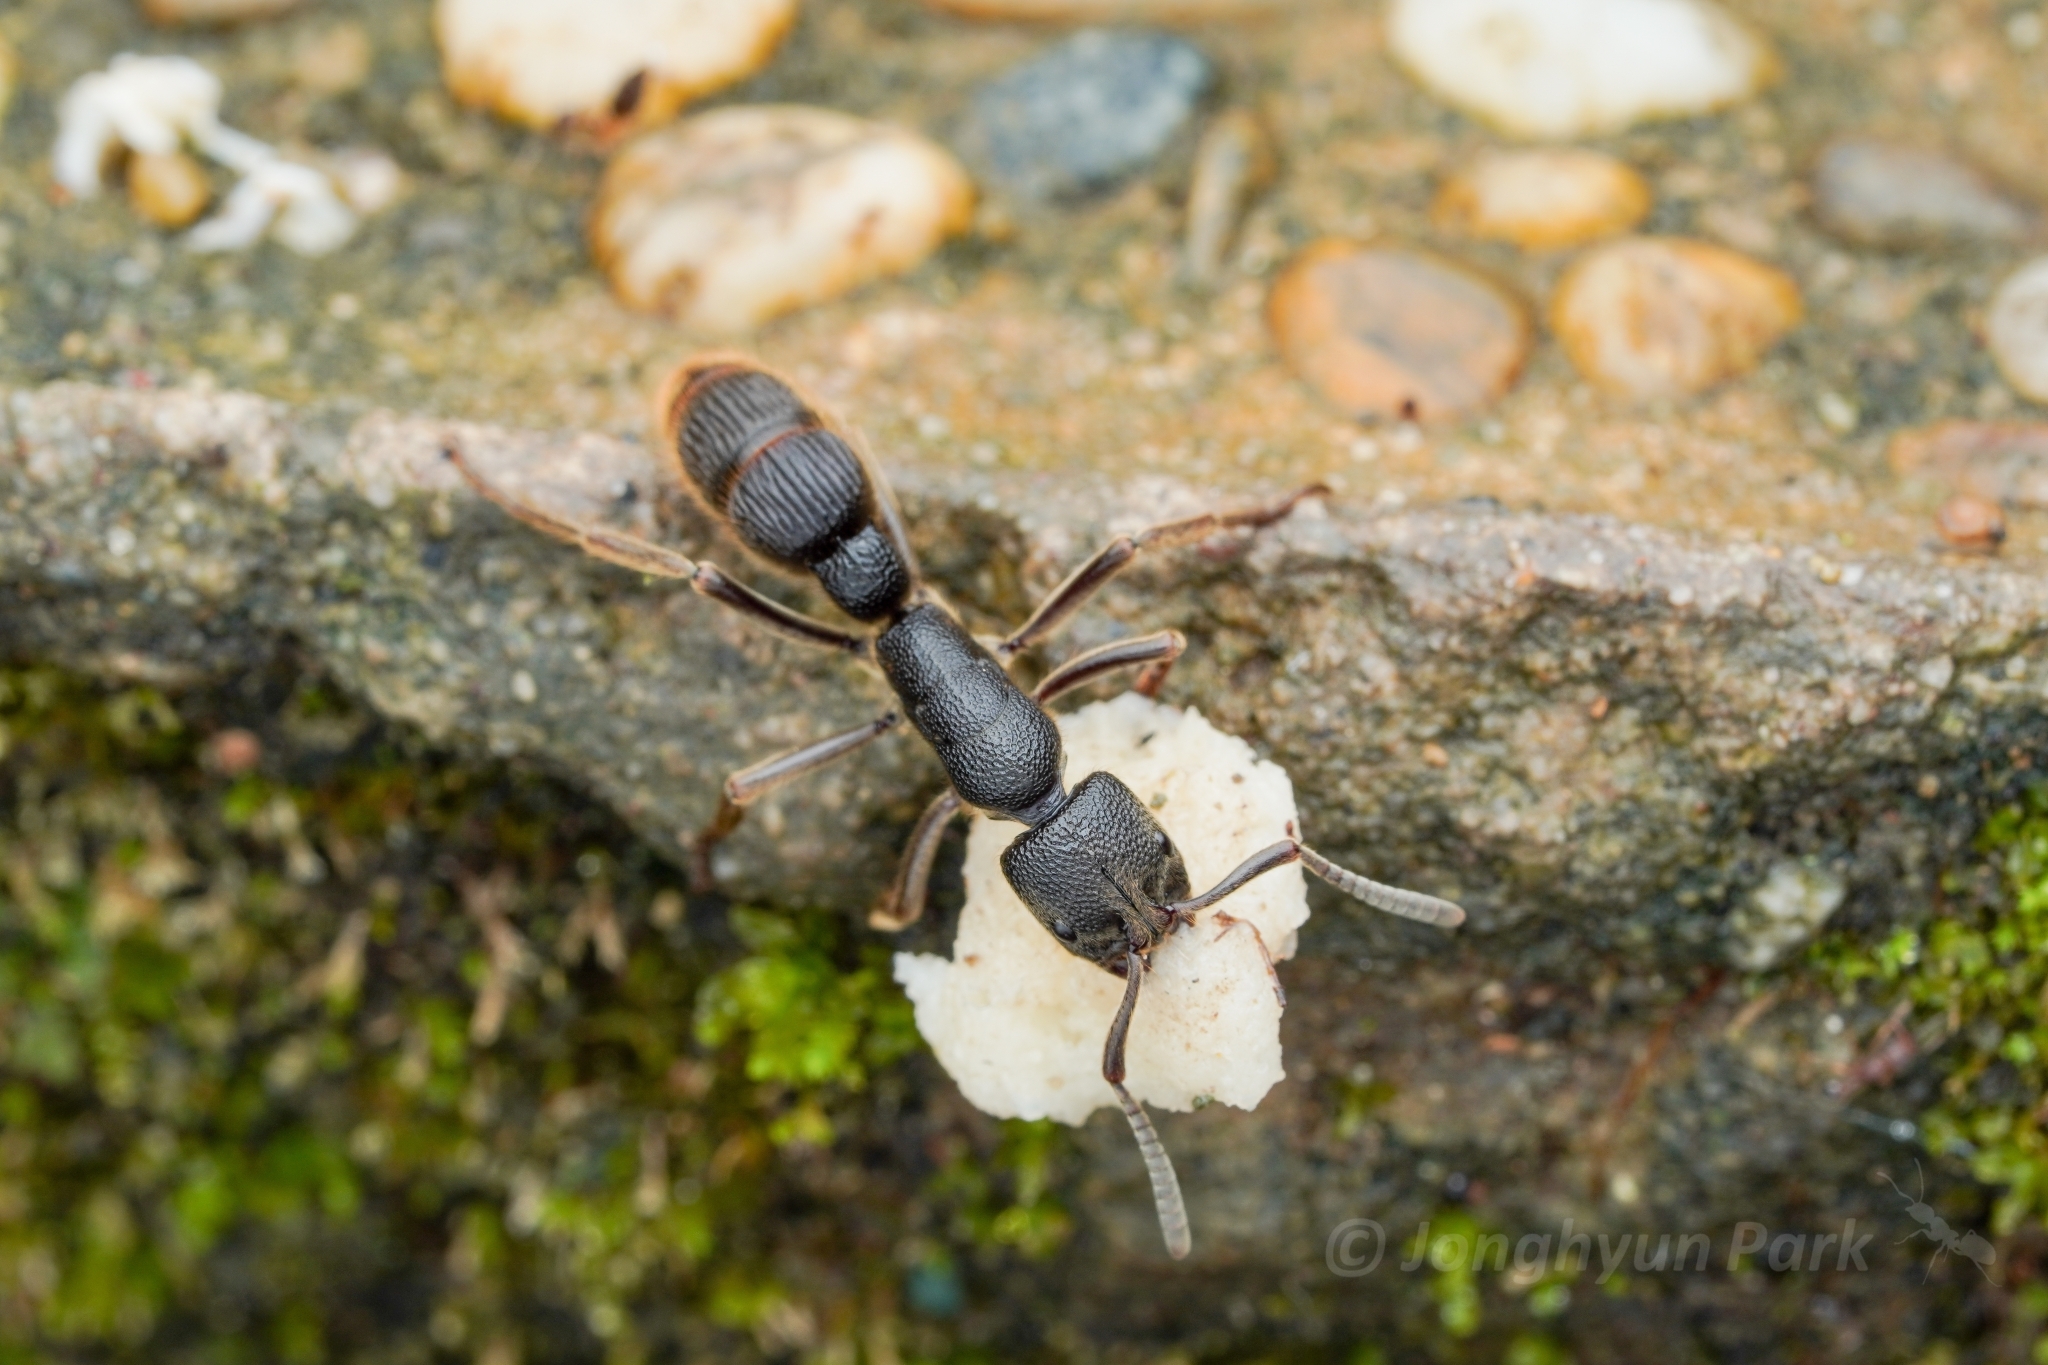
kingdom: Animalia
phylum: Arthropoda
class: Insecta
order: Hymenoptera
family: Formicidae
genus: Pseudoneoponera
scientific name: Pseudoneoponera
